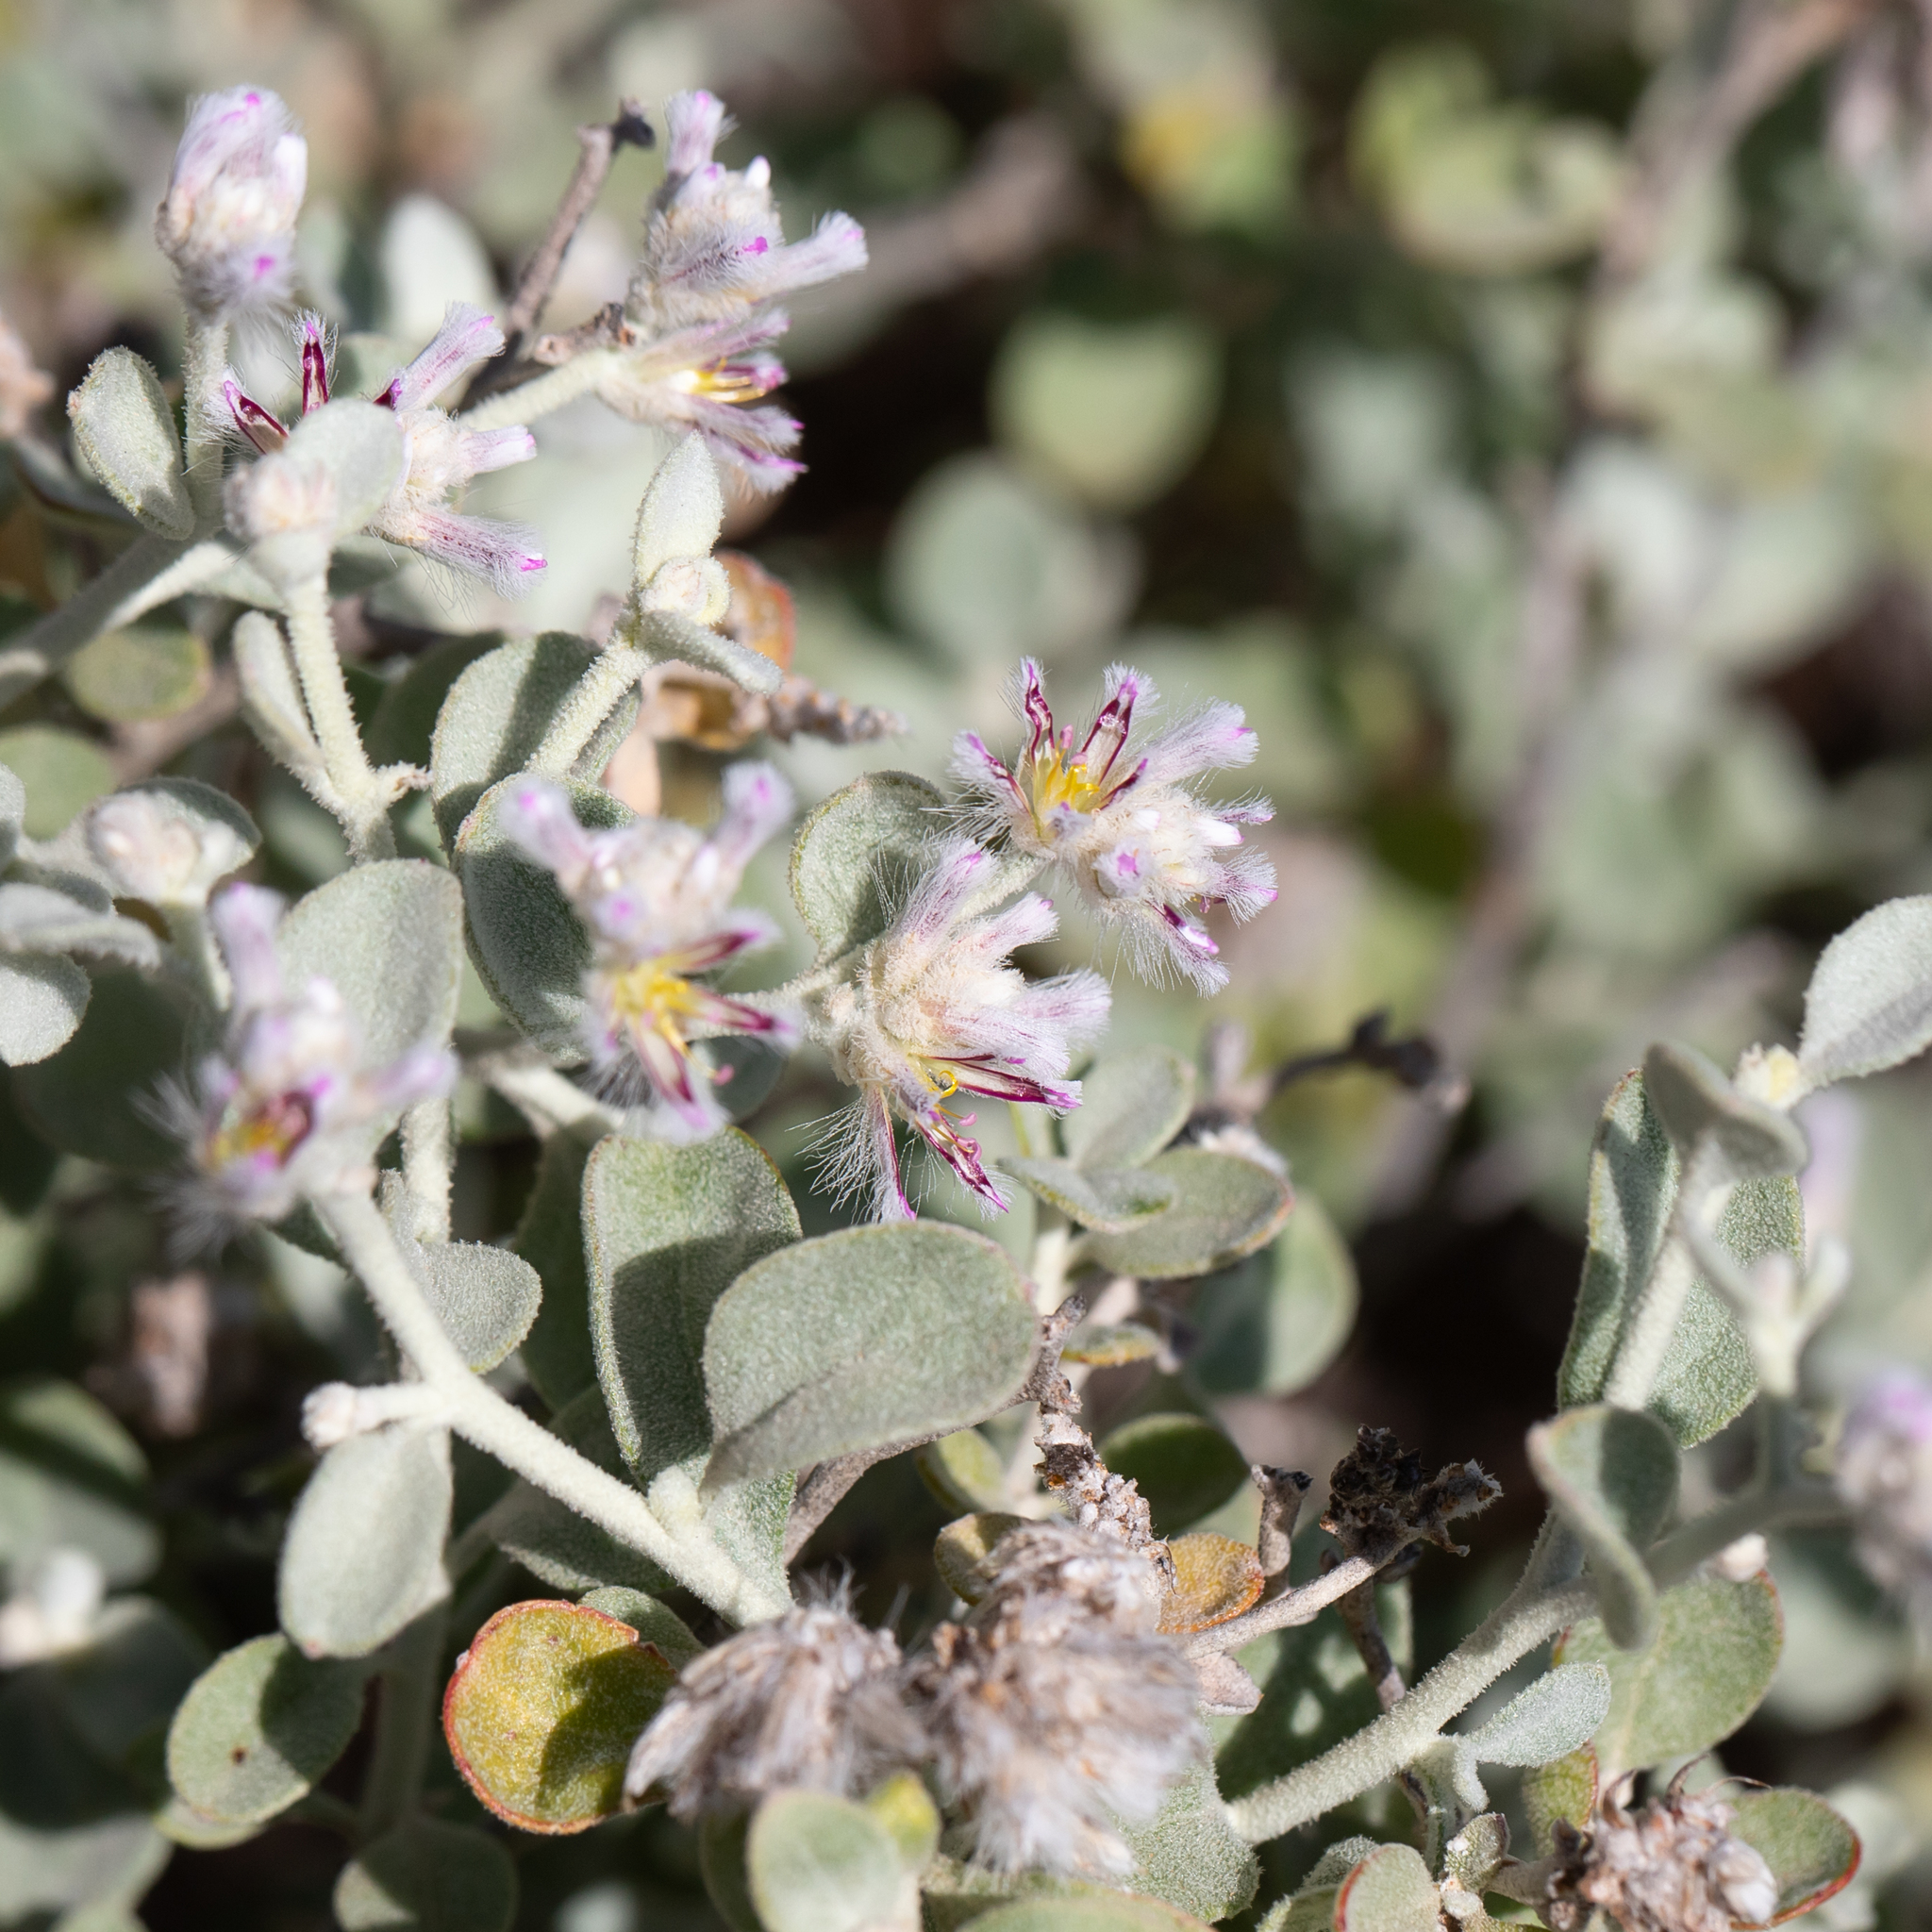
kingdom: Plantae
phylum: Tracheophyta
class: Magnoliopsida
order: Caryophyllales
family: Amaranthaceae
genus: Ptilotus
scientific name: Ptilotus obovatus
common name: Cottonbush
